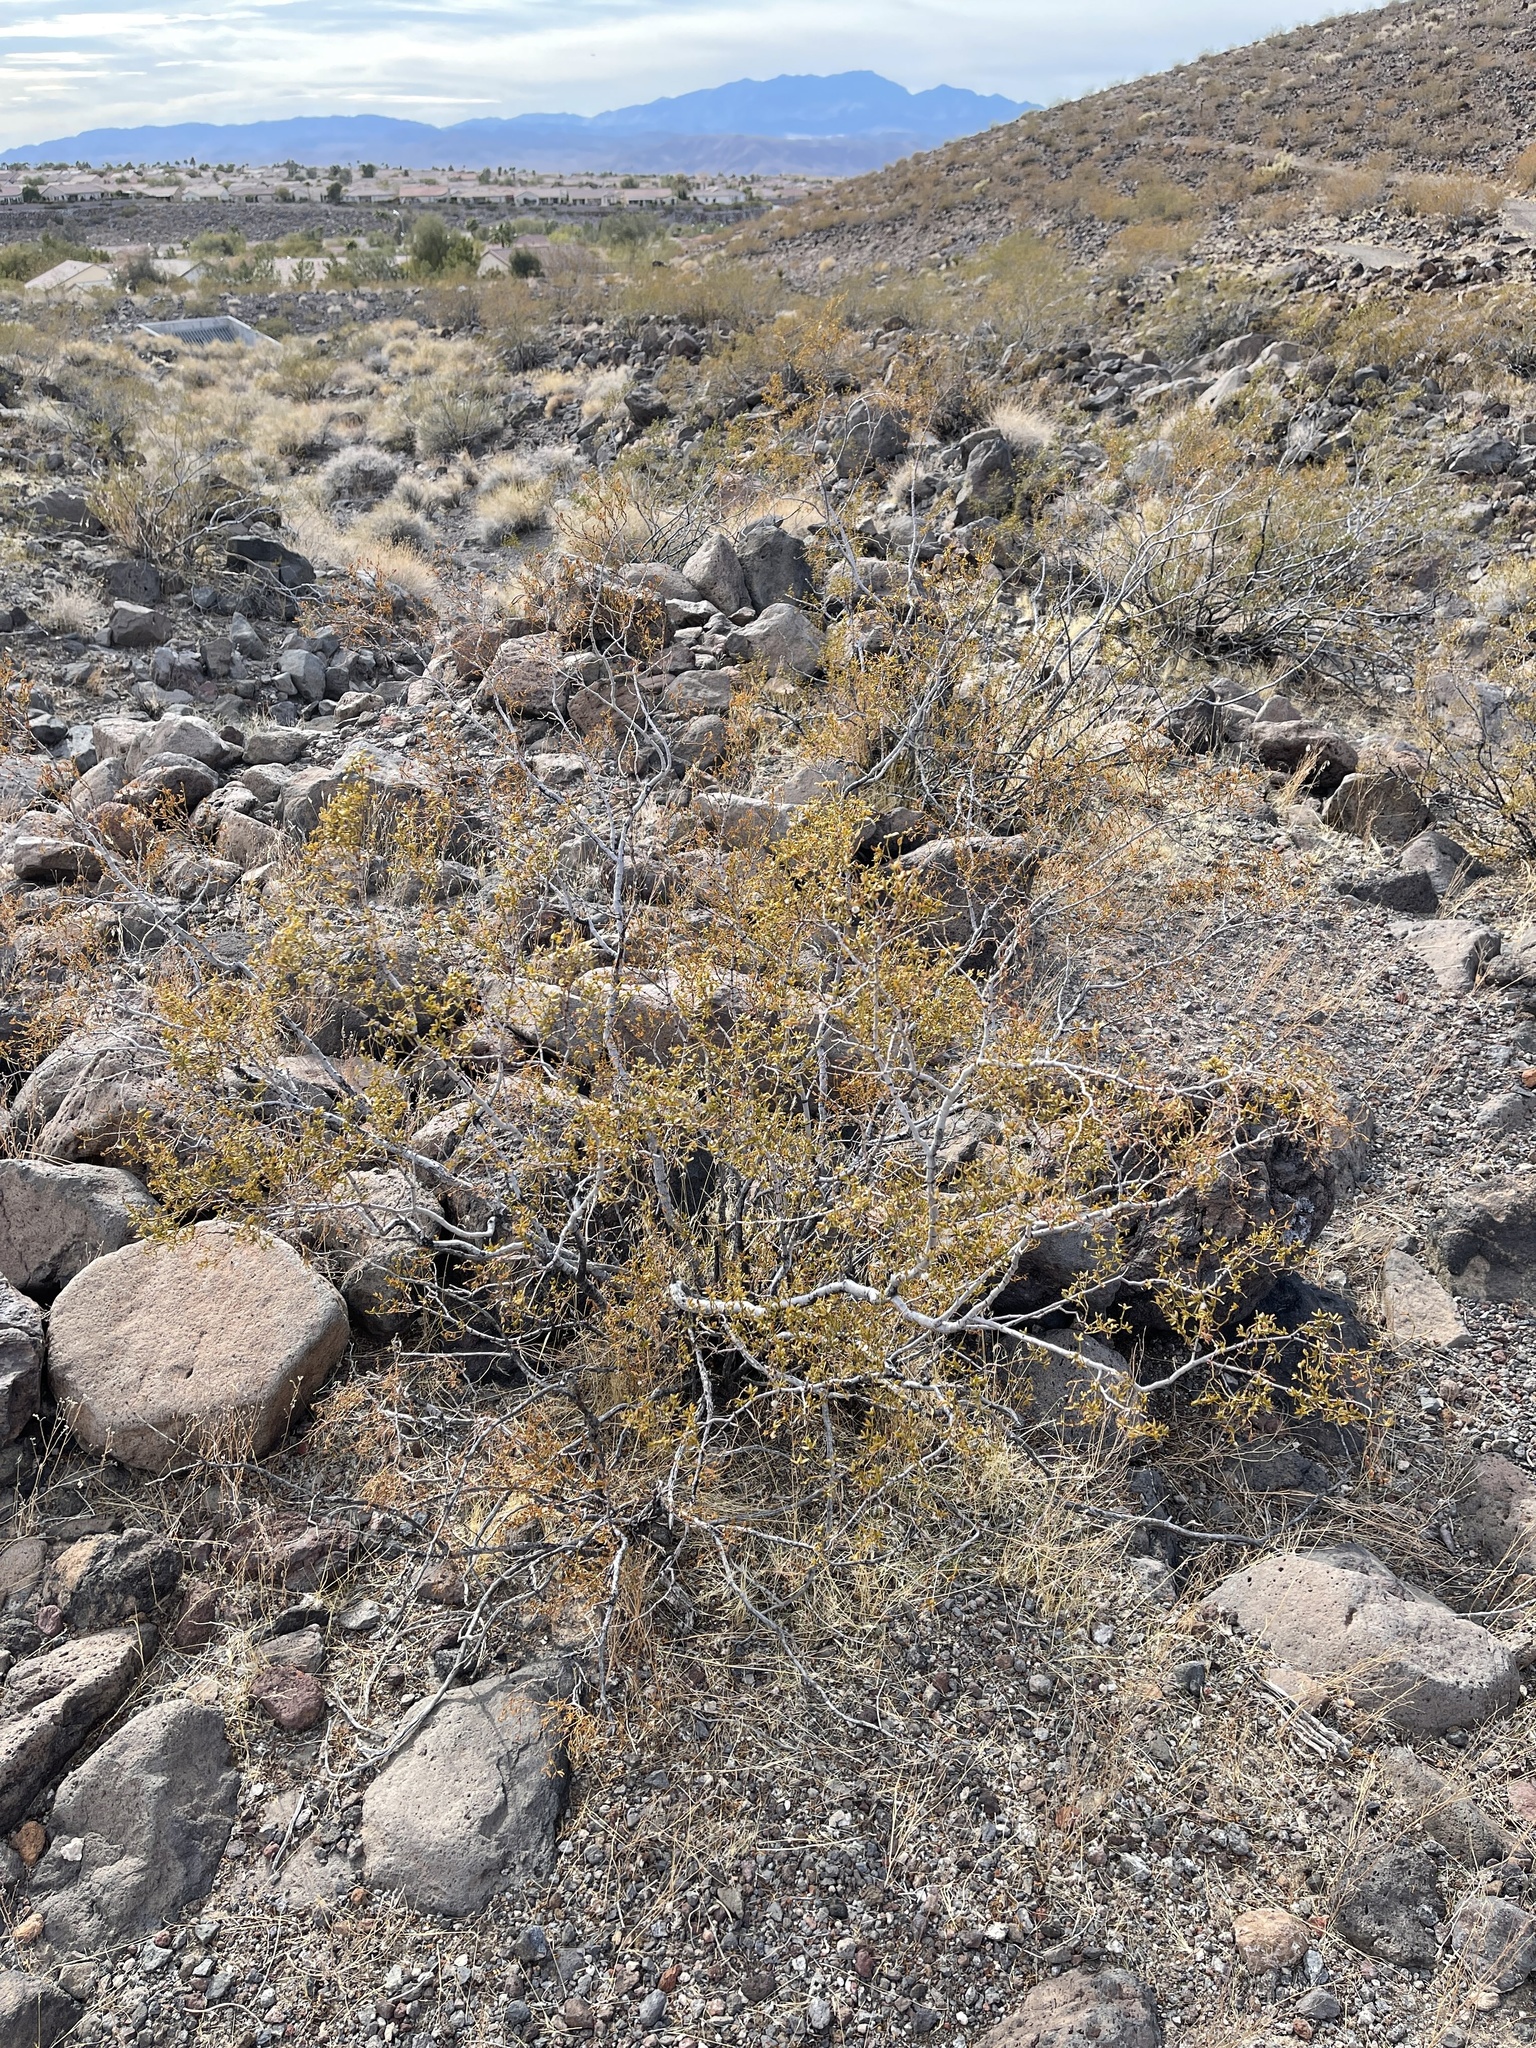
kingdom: Plantae
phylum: Tracheophyta
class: Magnoliopsida
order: Zygophyllales
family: Zygophyllaceae
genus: Larrea
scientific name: Larrea tridentata
